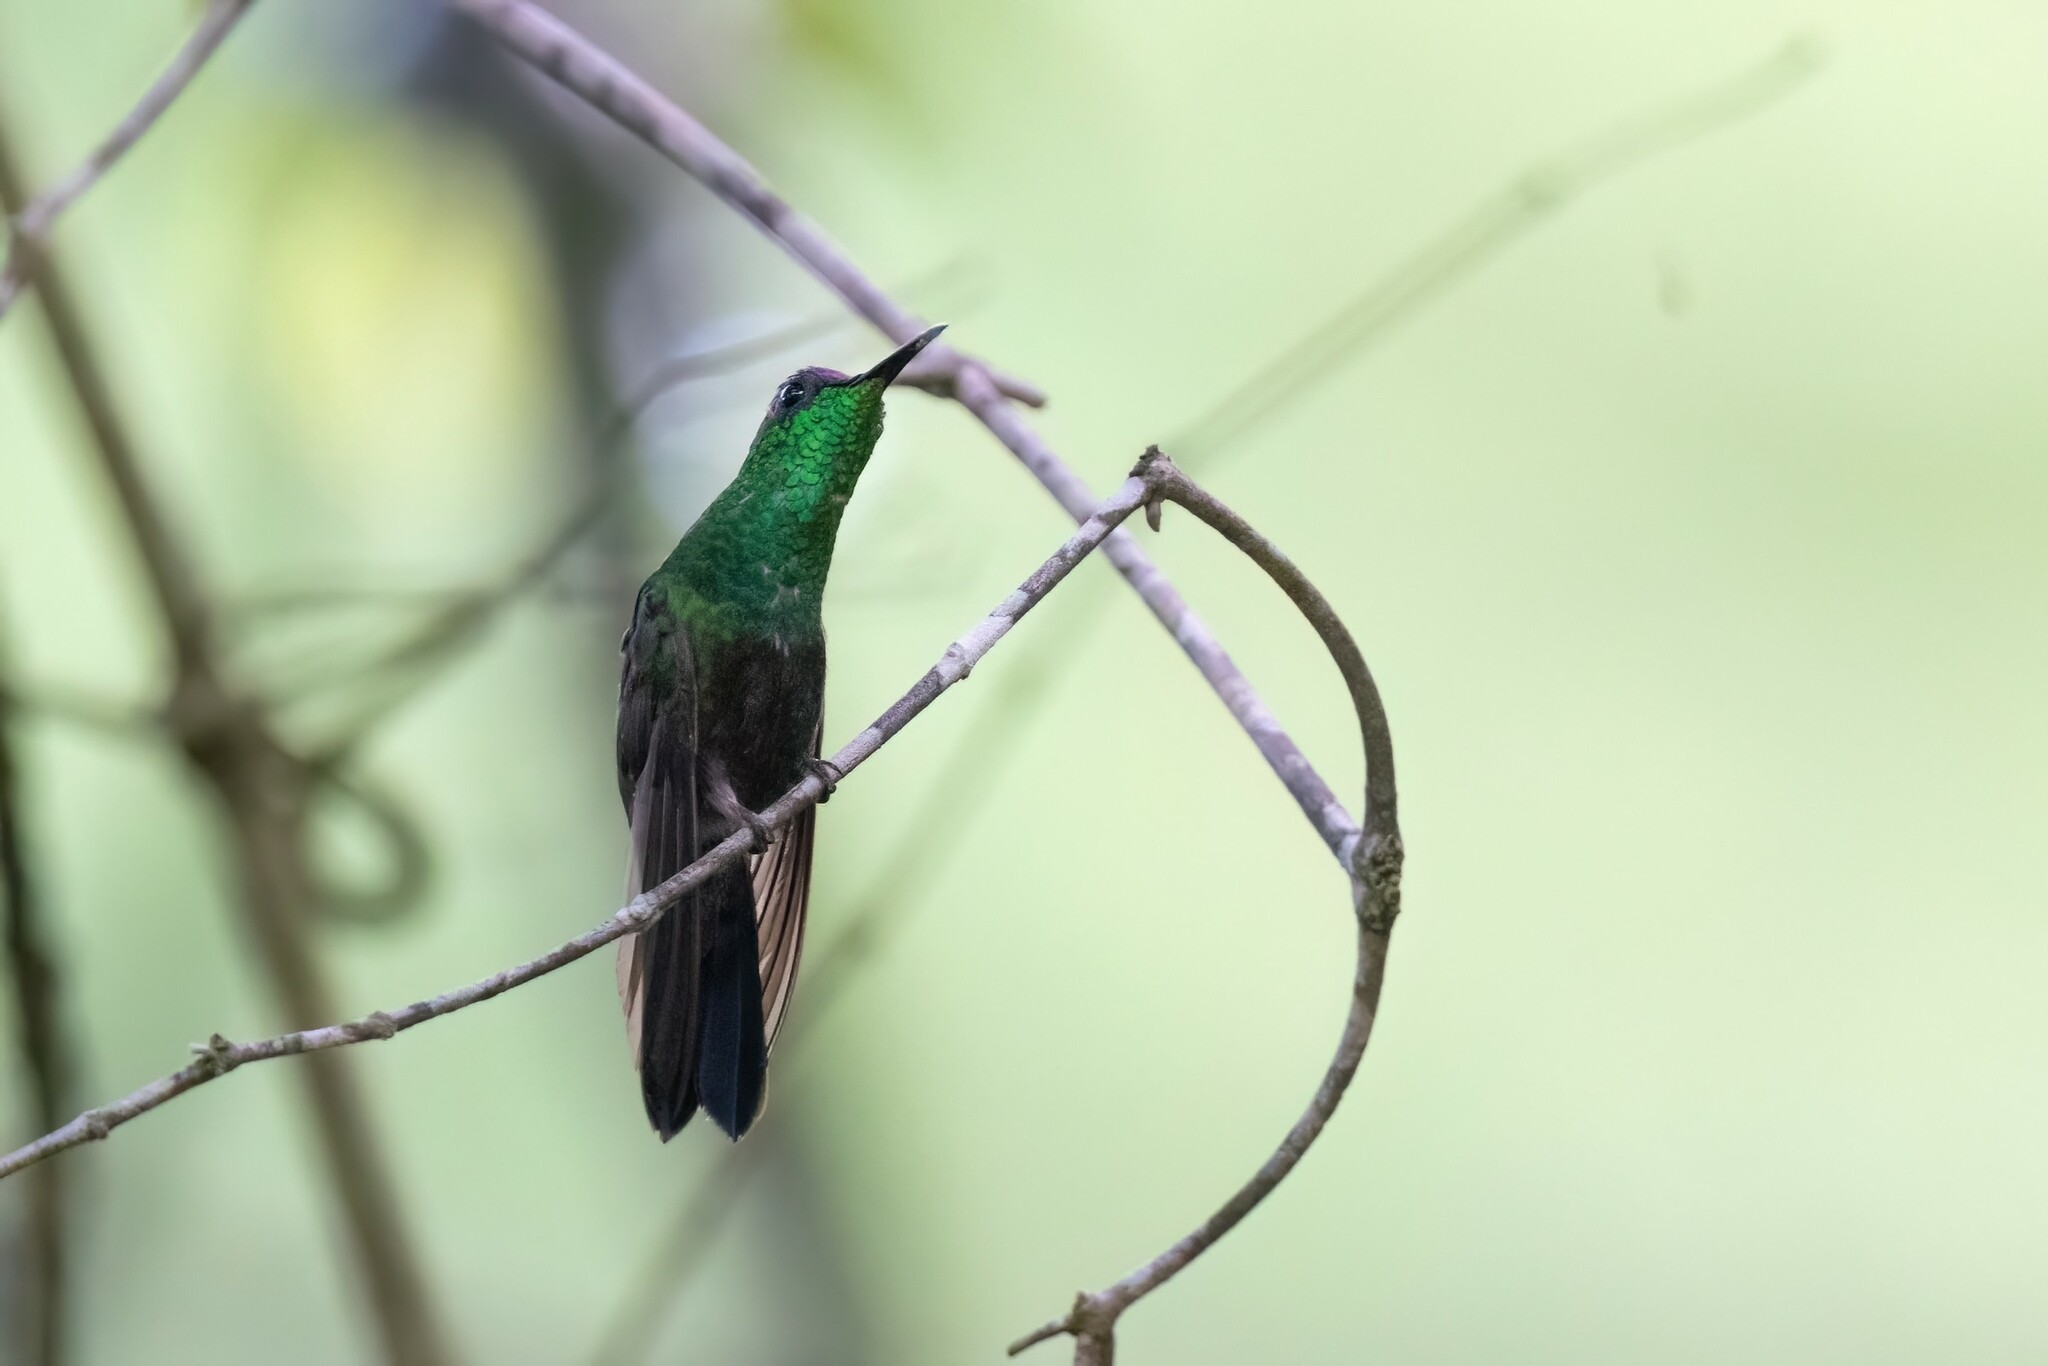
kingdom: Animalia
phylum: Chordata
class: Aves
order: Apodiformes
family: Trochilidae
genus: Eupherusa
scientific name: Eupherusa ridgwayi
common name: Mexican woodnymph
